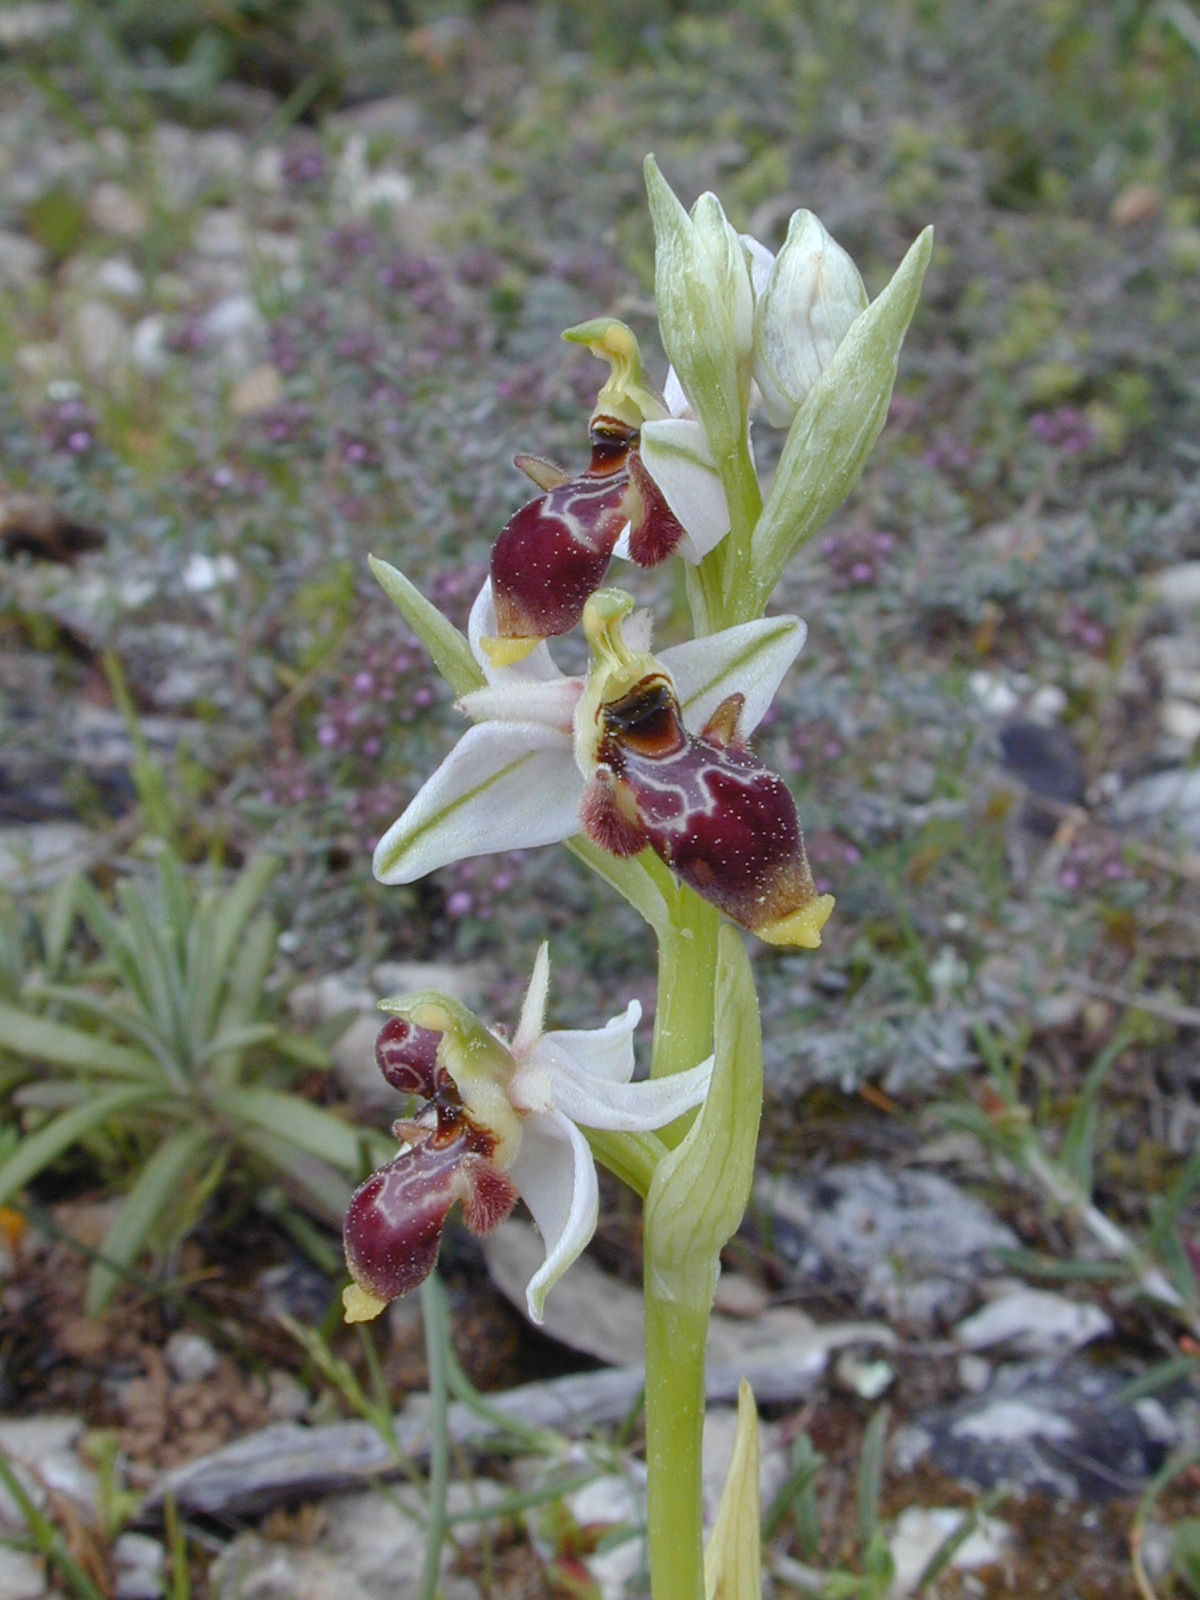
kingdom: Plantae
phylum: Tracheophyta
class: Liliopsida
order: Asparagales
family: Orchidaceae
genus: Ophrys
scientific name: Ophrys scolopax
